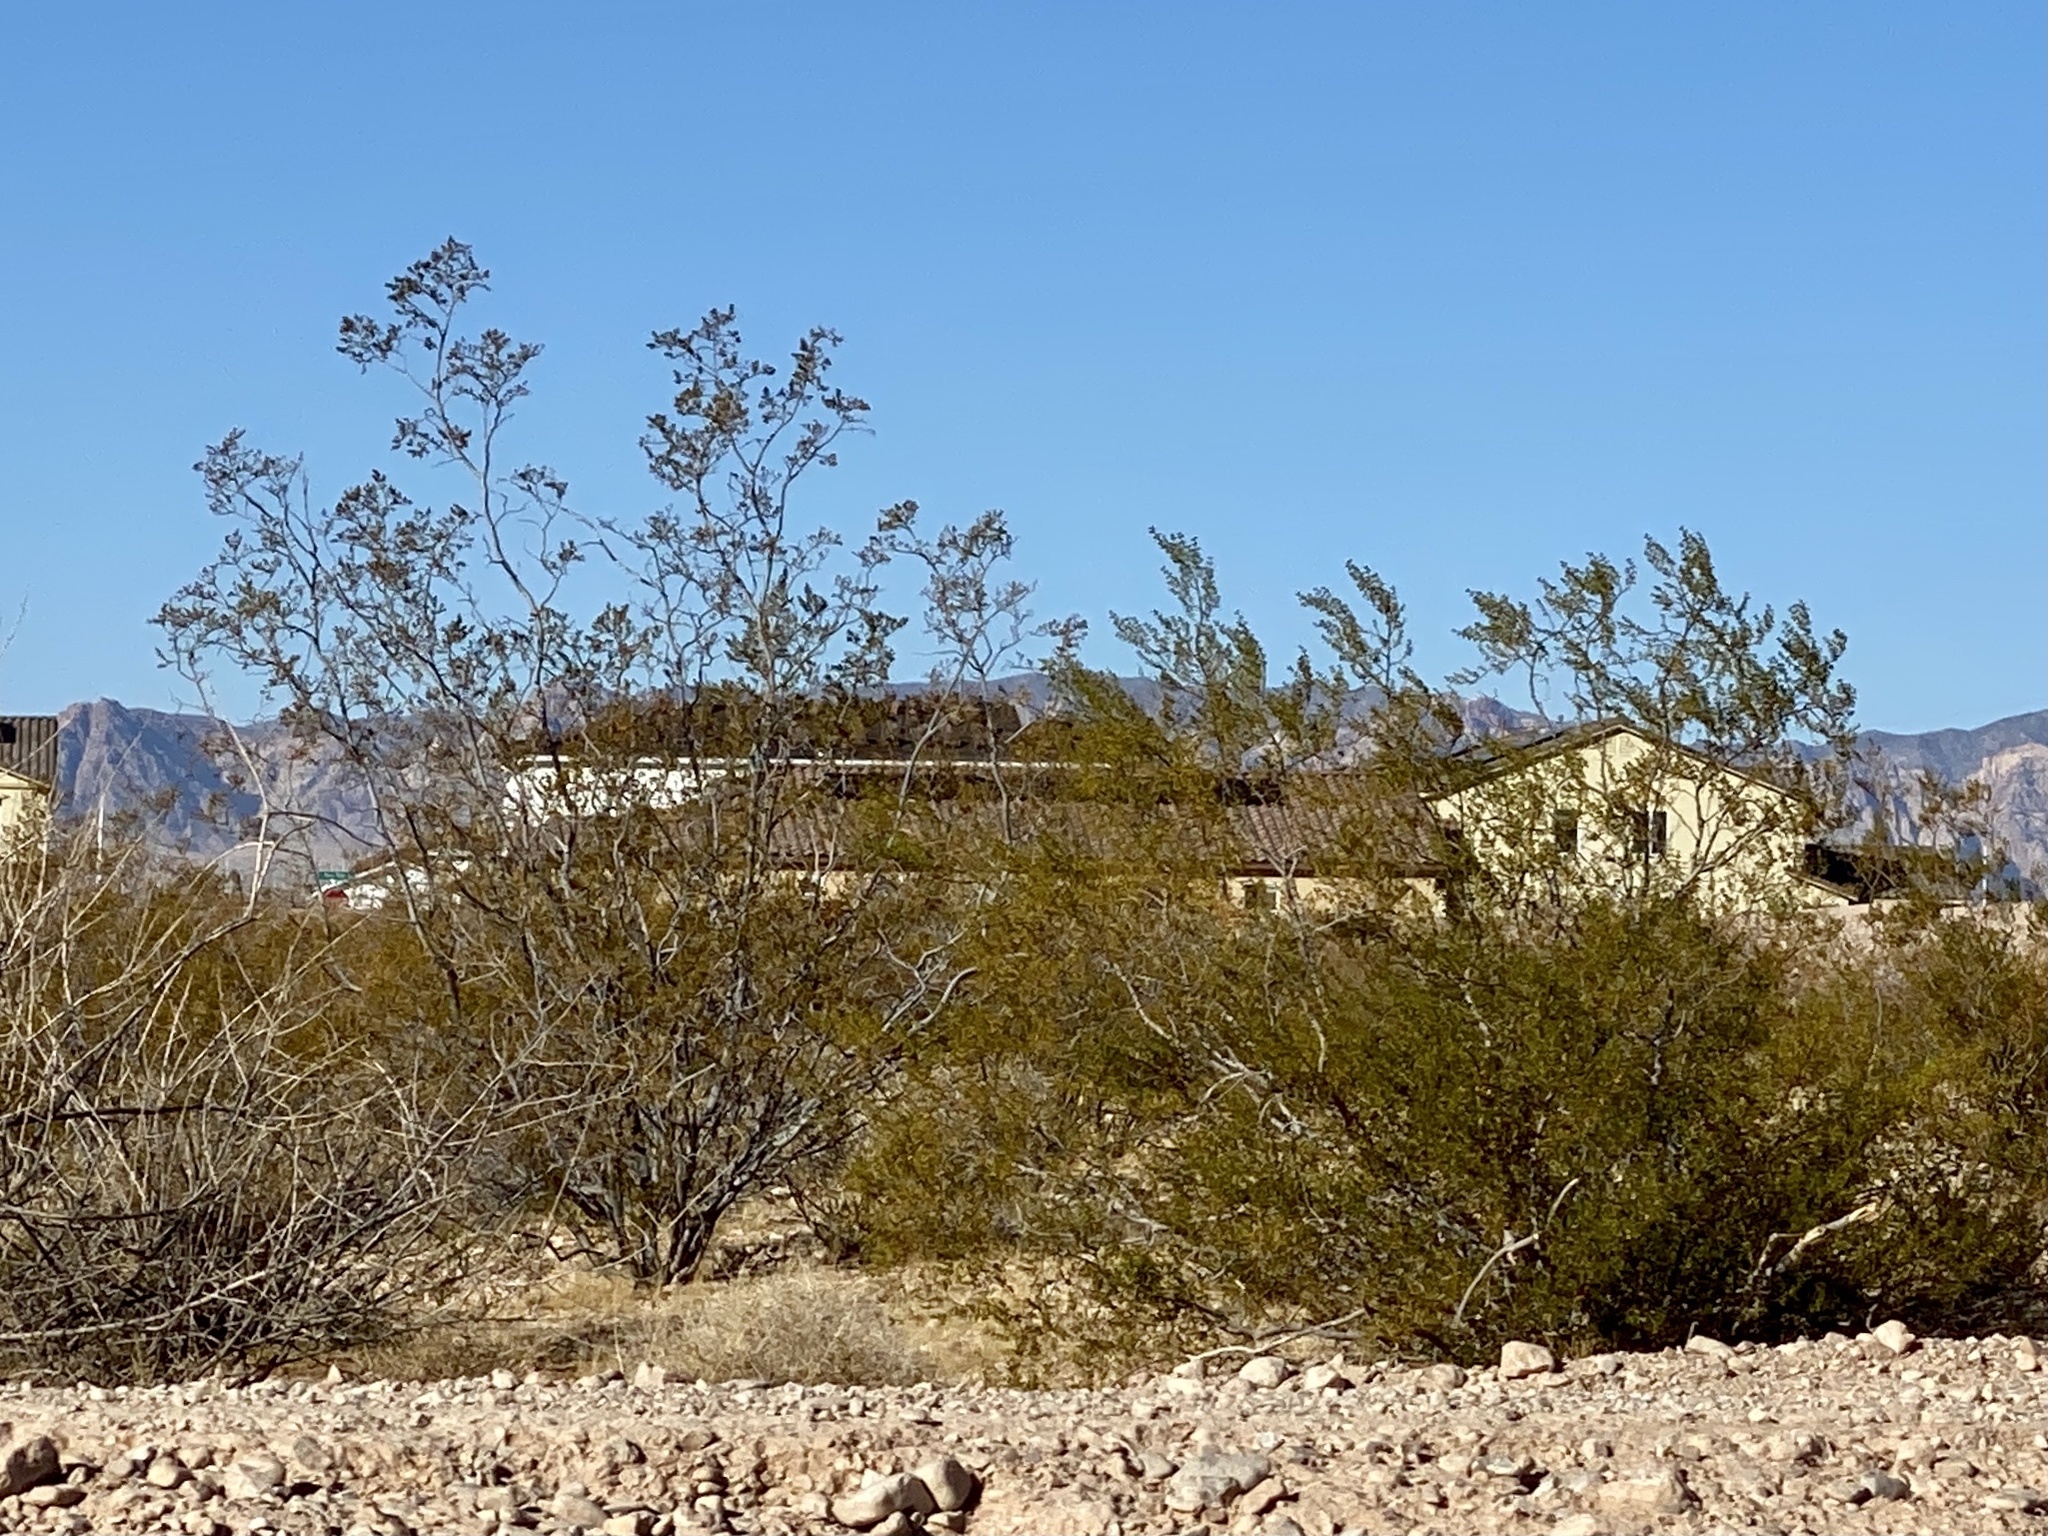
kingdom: Plantae
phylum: Tracheophyta
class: Magnoliopsida
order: Zygophyllales
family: Zygophyllaceae
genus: Larrea
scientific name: Larrea tridentata
